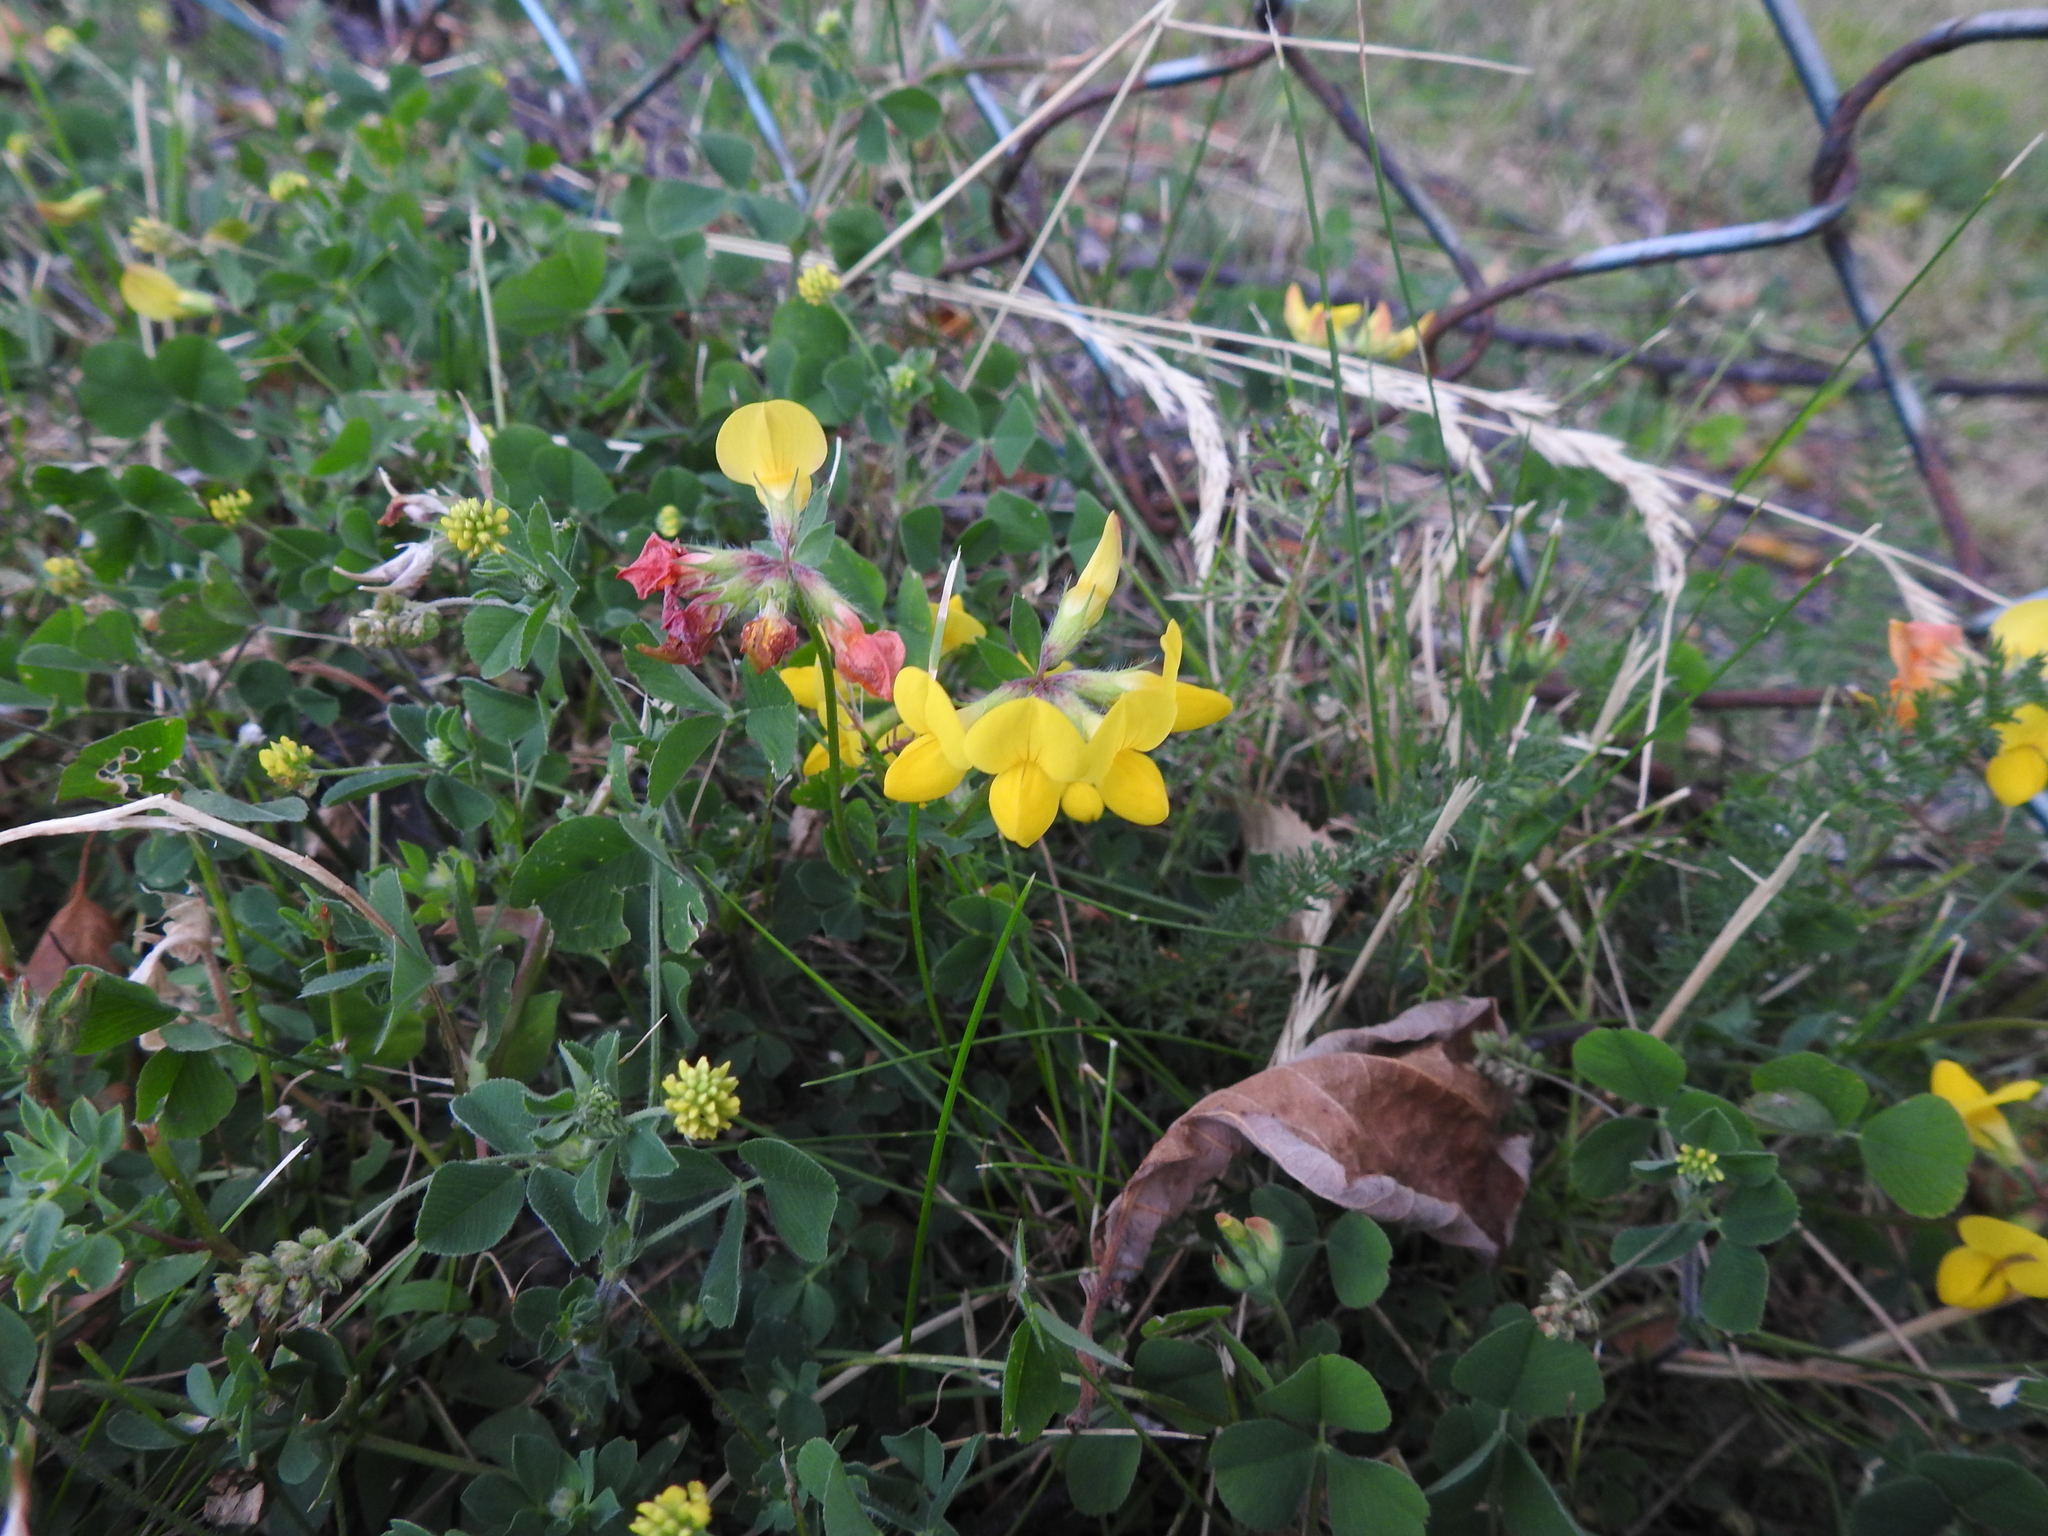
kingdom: Plantae
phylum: Tracheophyta
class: Magnoliopsida
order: Fabales
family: Fabaceae
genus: Lotus
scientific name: Lotus corniculatus
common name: Common bird's-foot-trefoil
